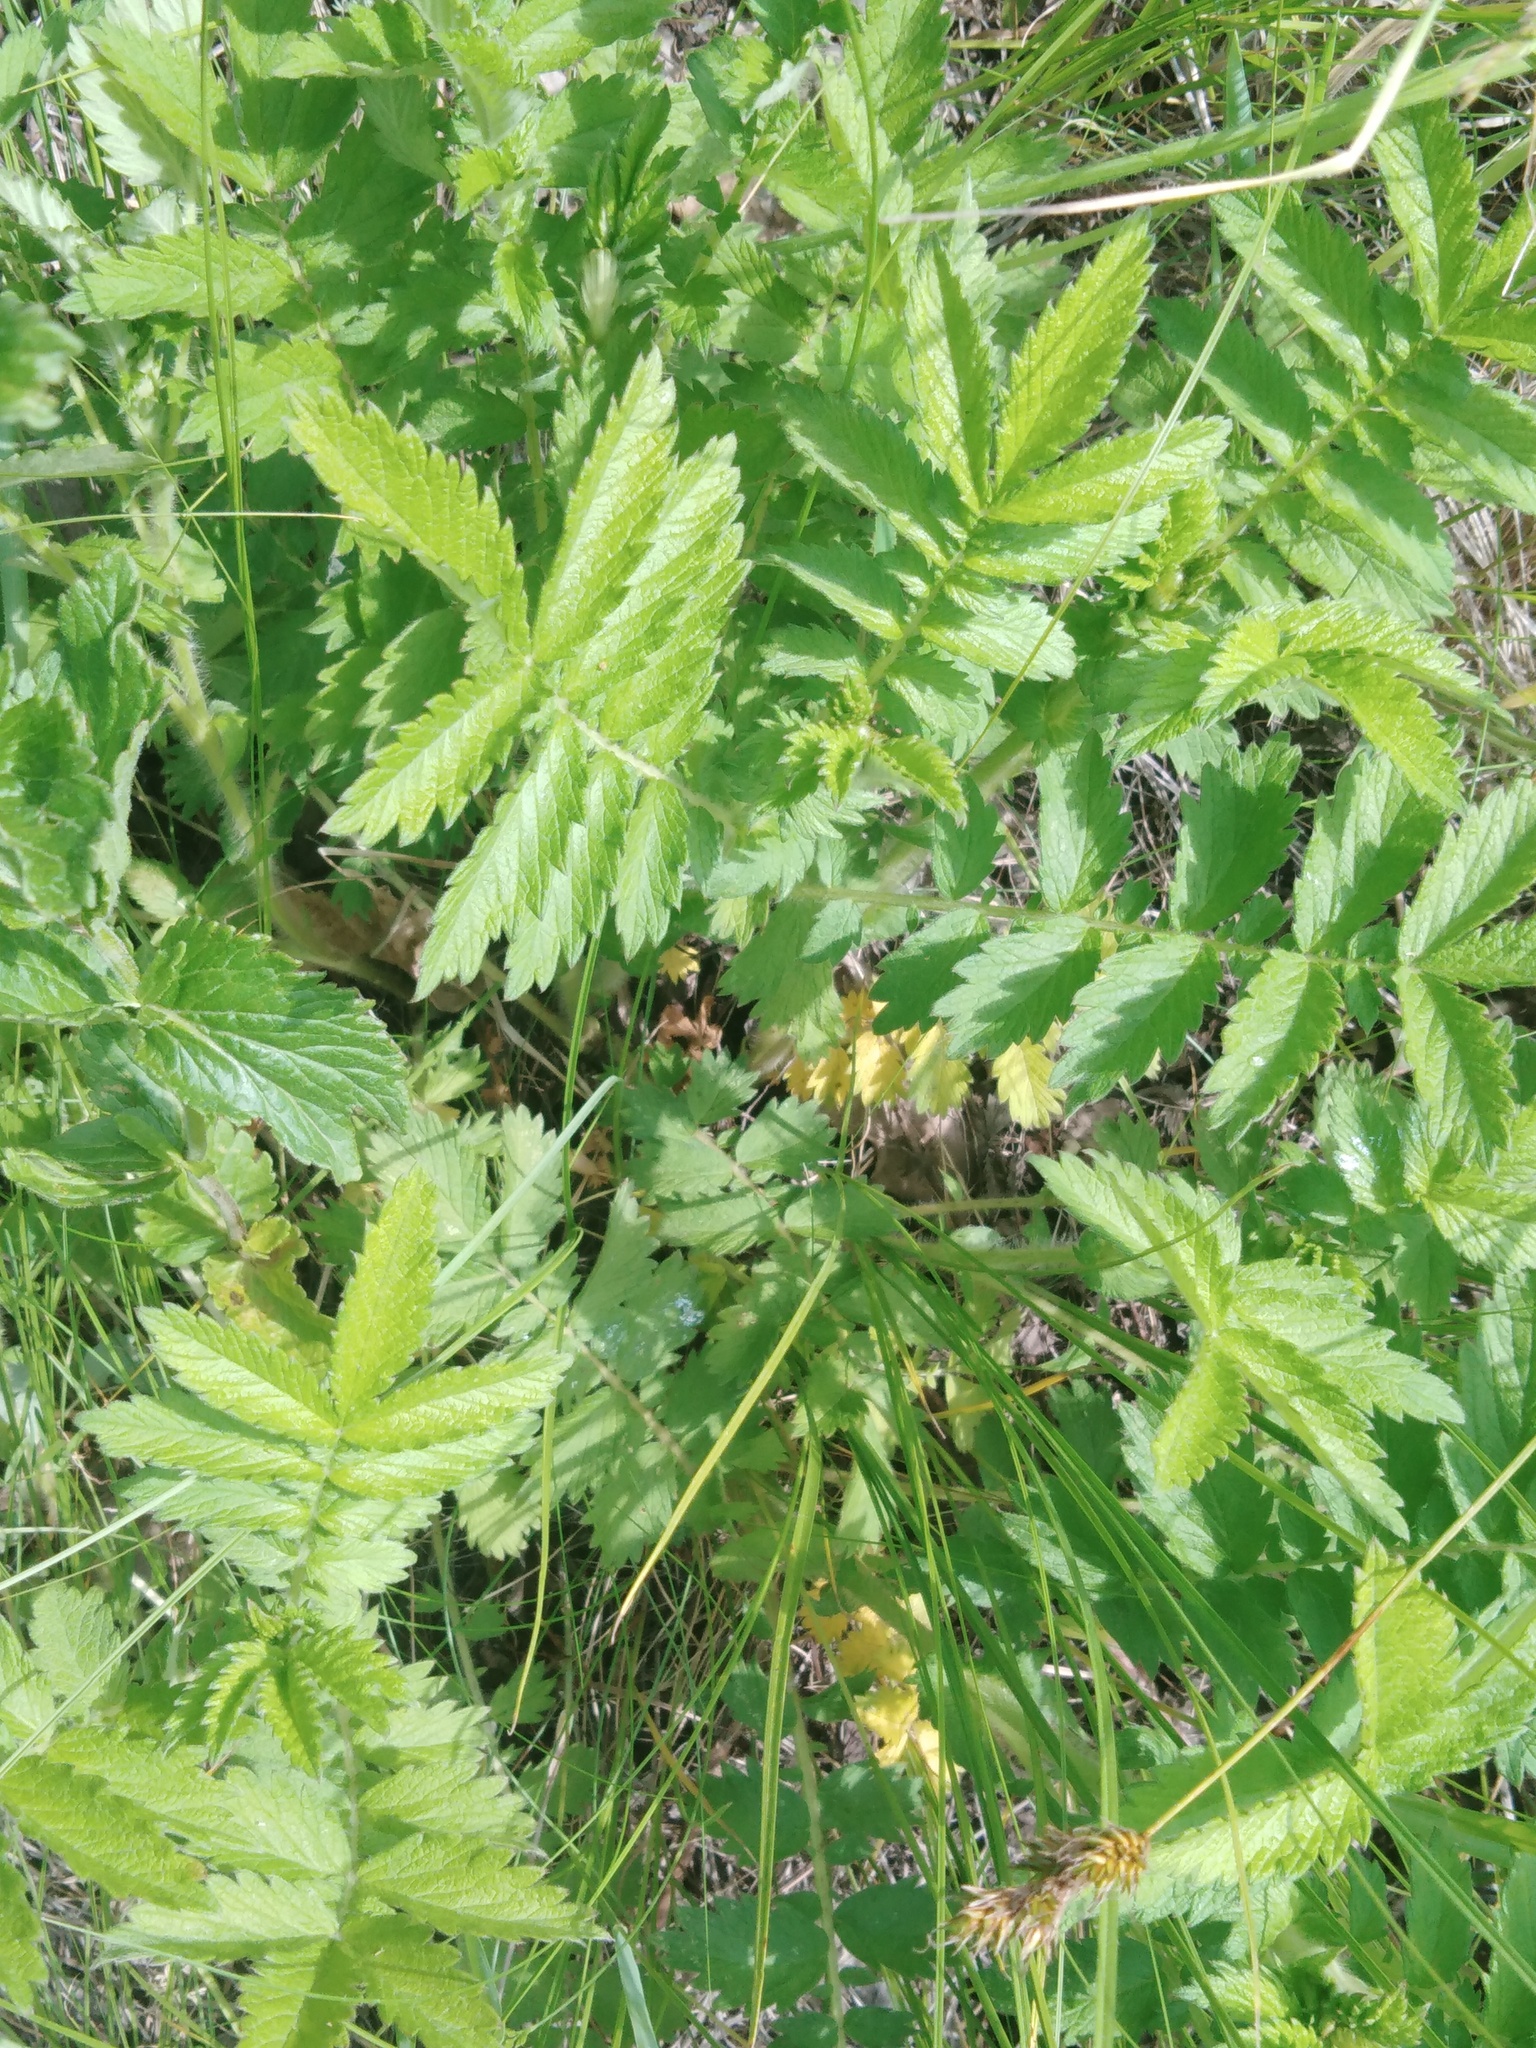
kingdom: Plantae
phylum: Tracheophyta
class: Magnoliopsida
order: Rosales
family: Rosaceae
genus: Agrimonia
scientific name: Agrimonia eupatoria
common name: Agrimony
